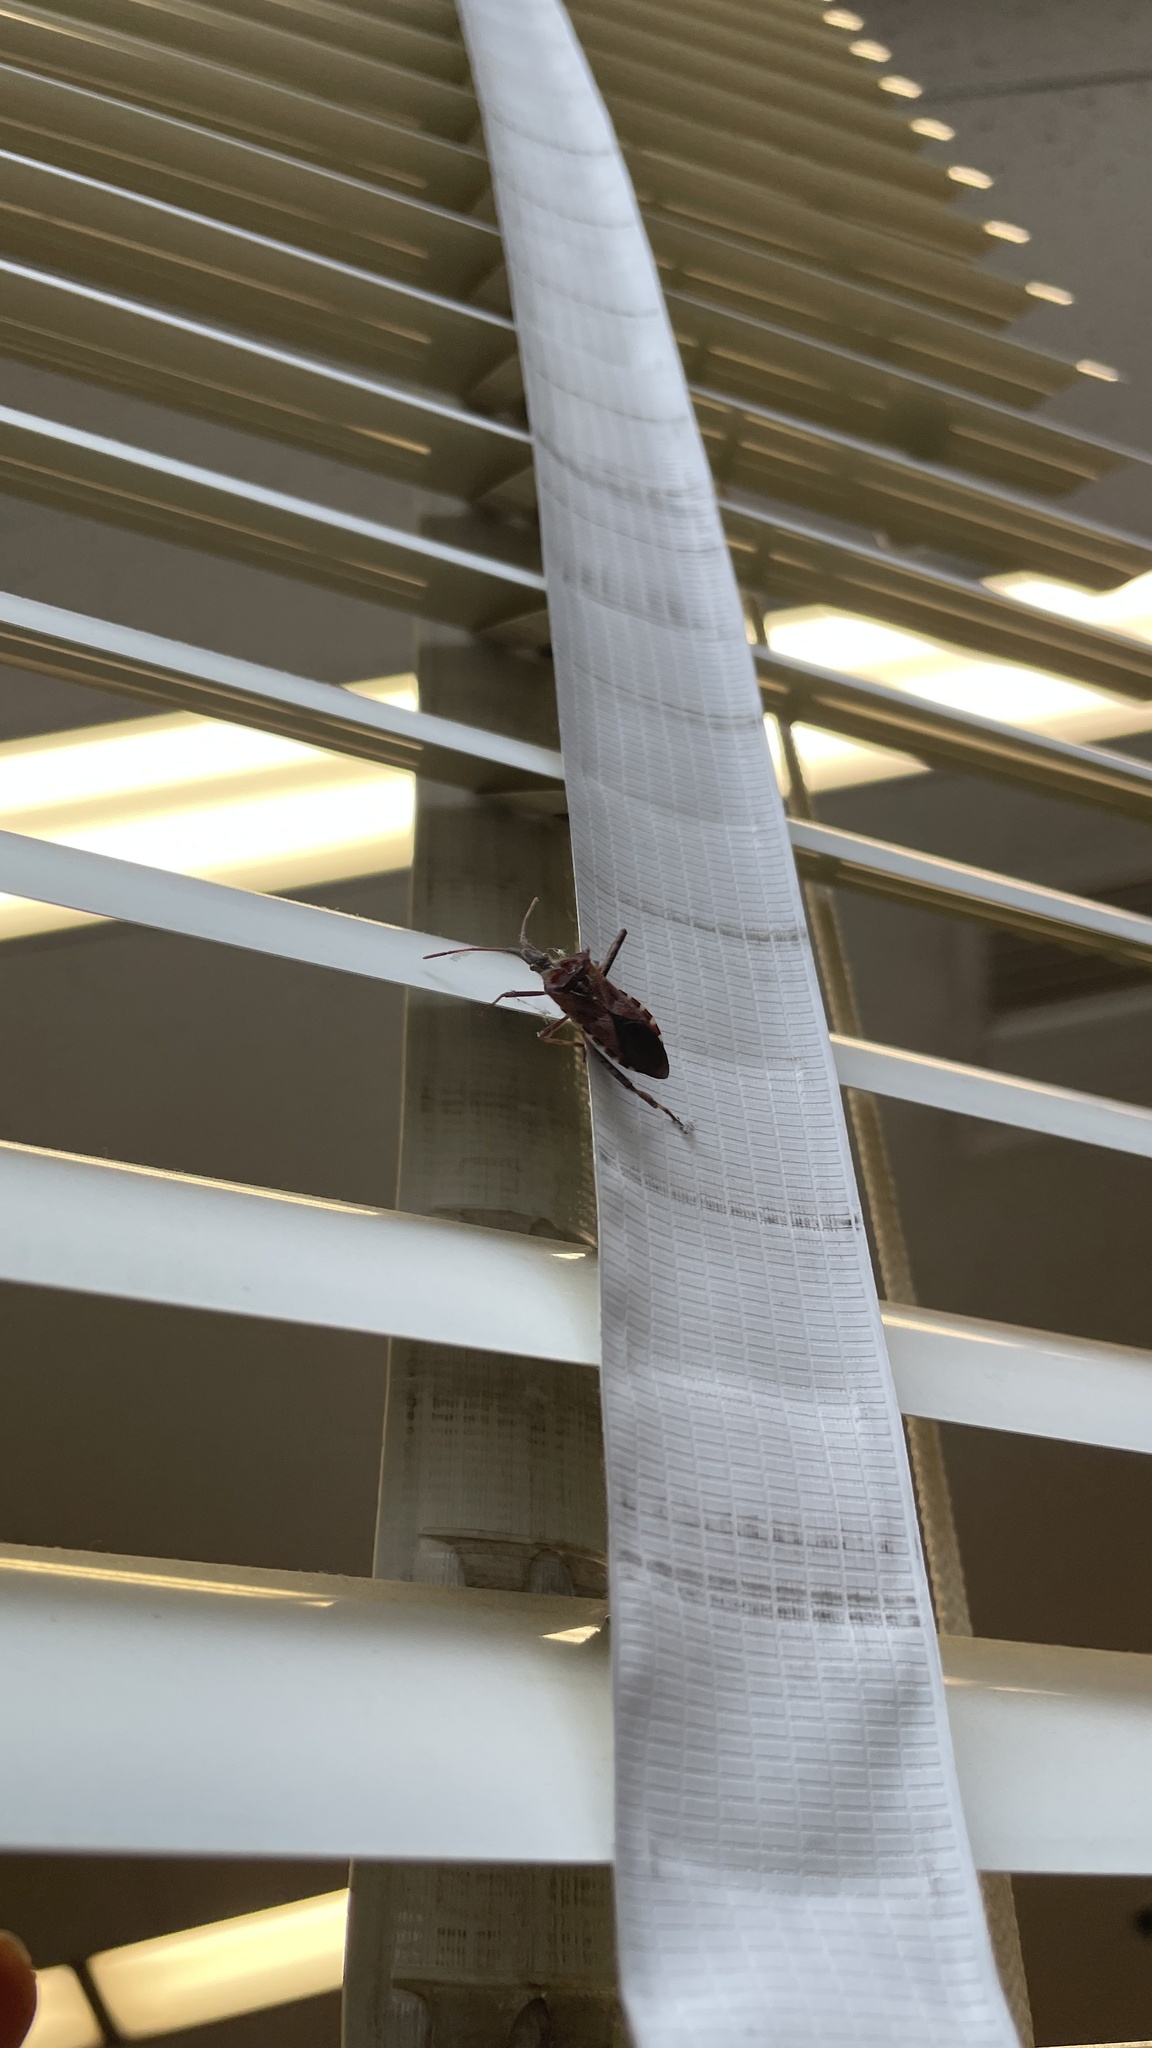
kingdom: Animalia
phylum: Arthropoda
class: Insecta
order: Hemiptera
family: Coreidae
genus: Leptoglossus
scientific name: Leptoglossus occidentalis
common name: Western conifer-seed bug
